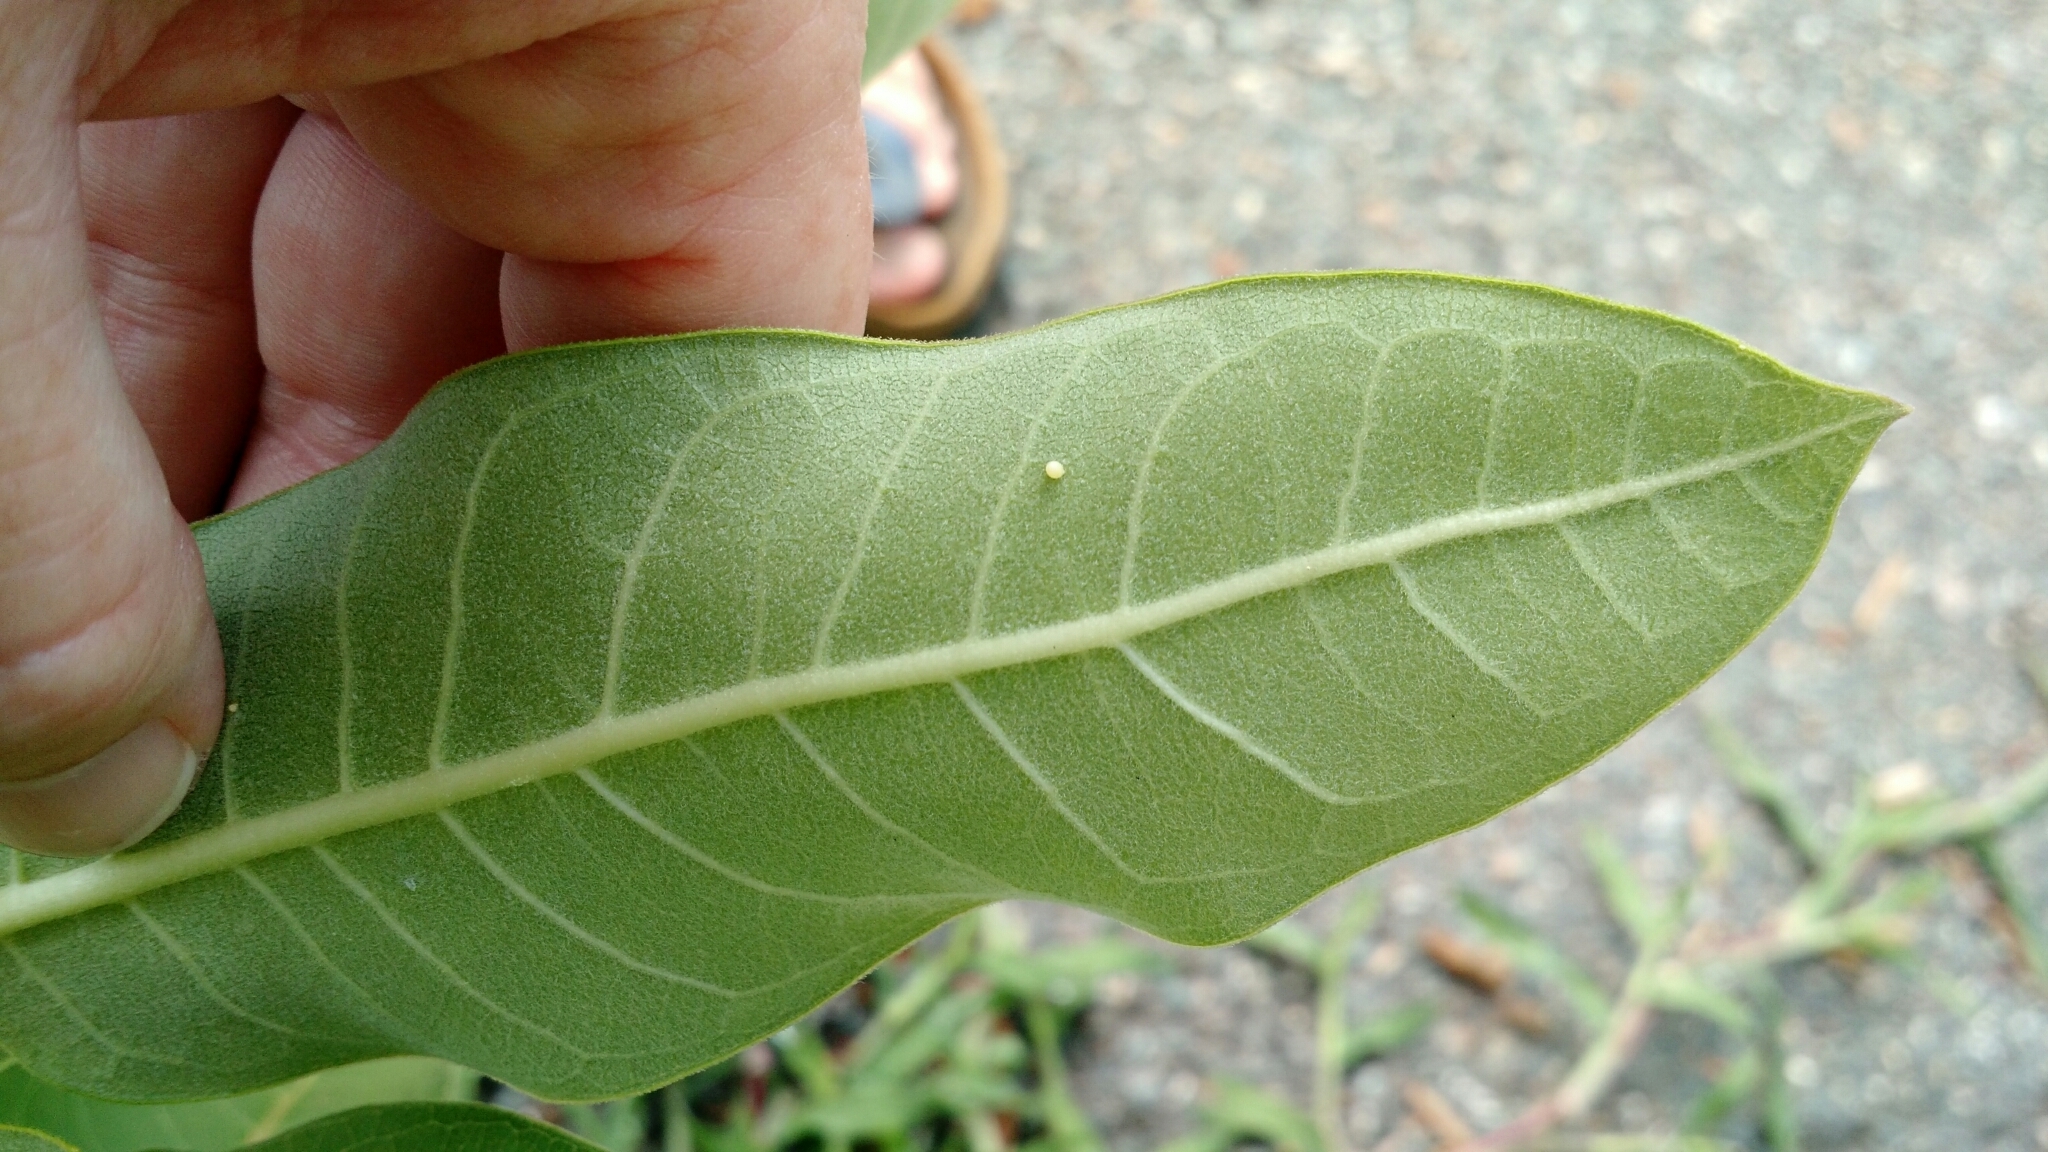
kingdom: Animalia
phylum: Arthropoda
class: Insecta
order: Lepidoptera
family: Nymphalidae
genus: Danaus
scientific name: Danaus plexippus
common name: Monarch
